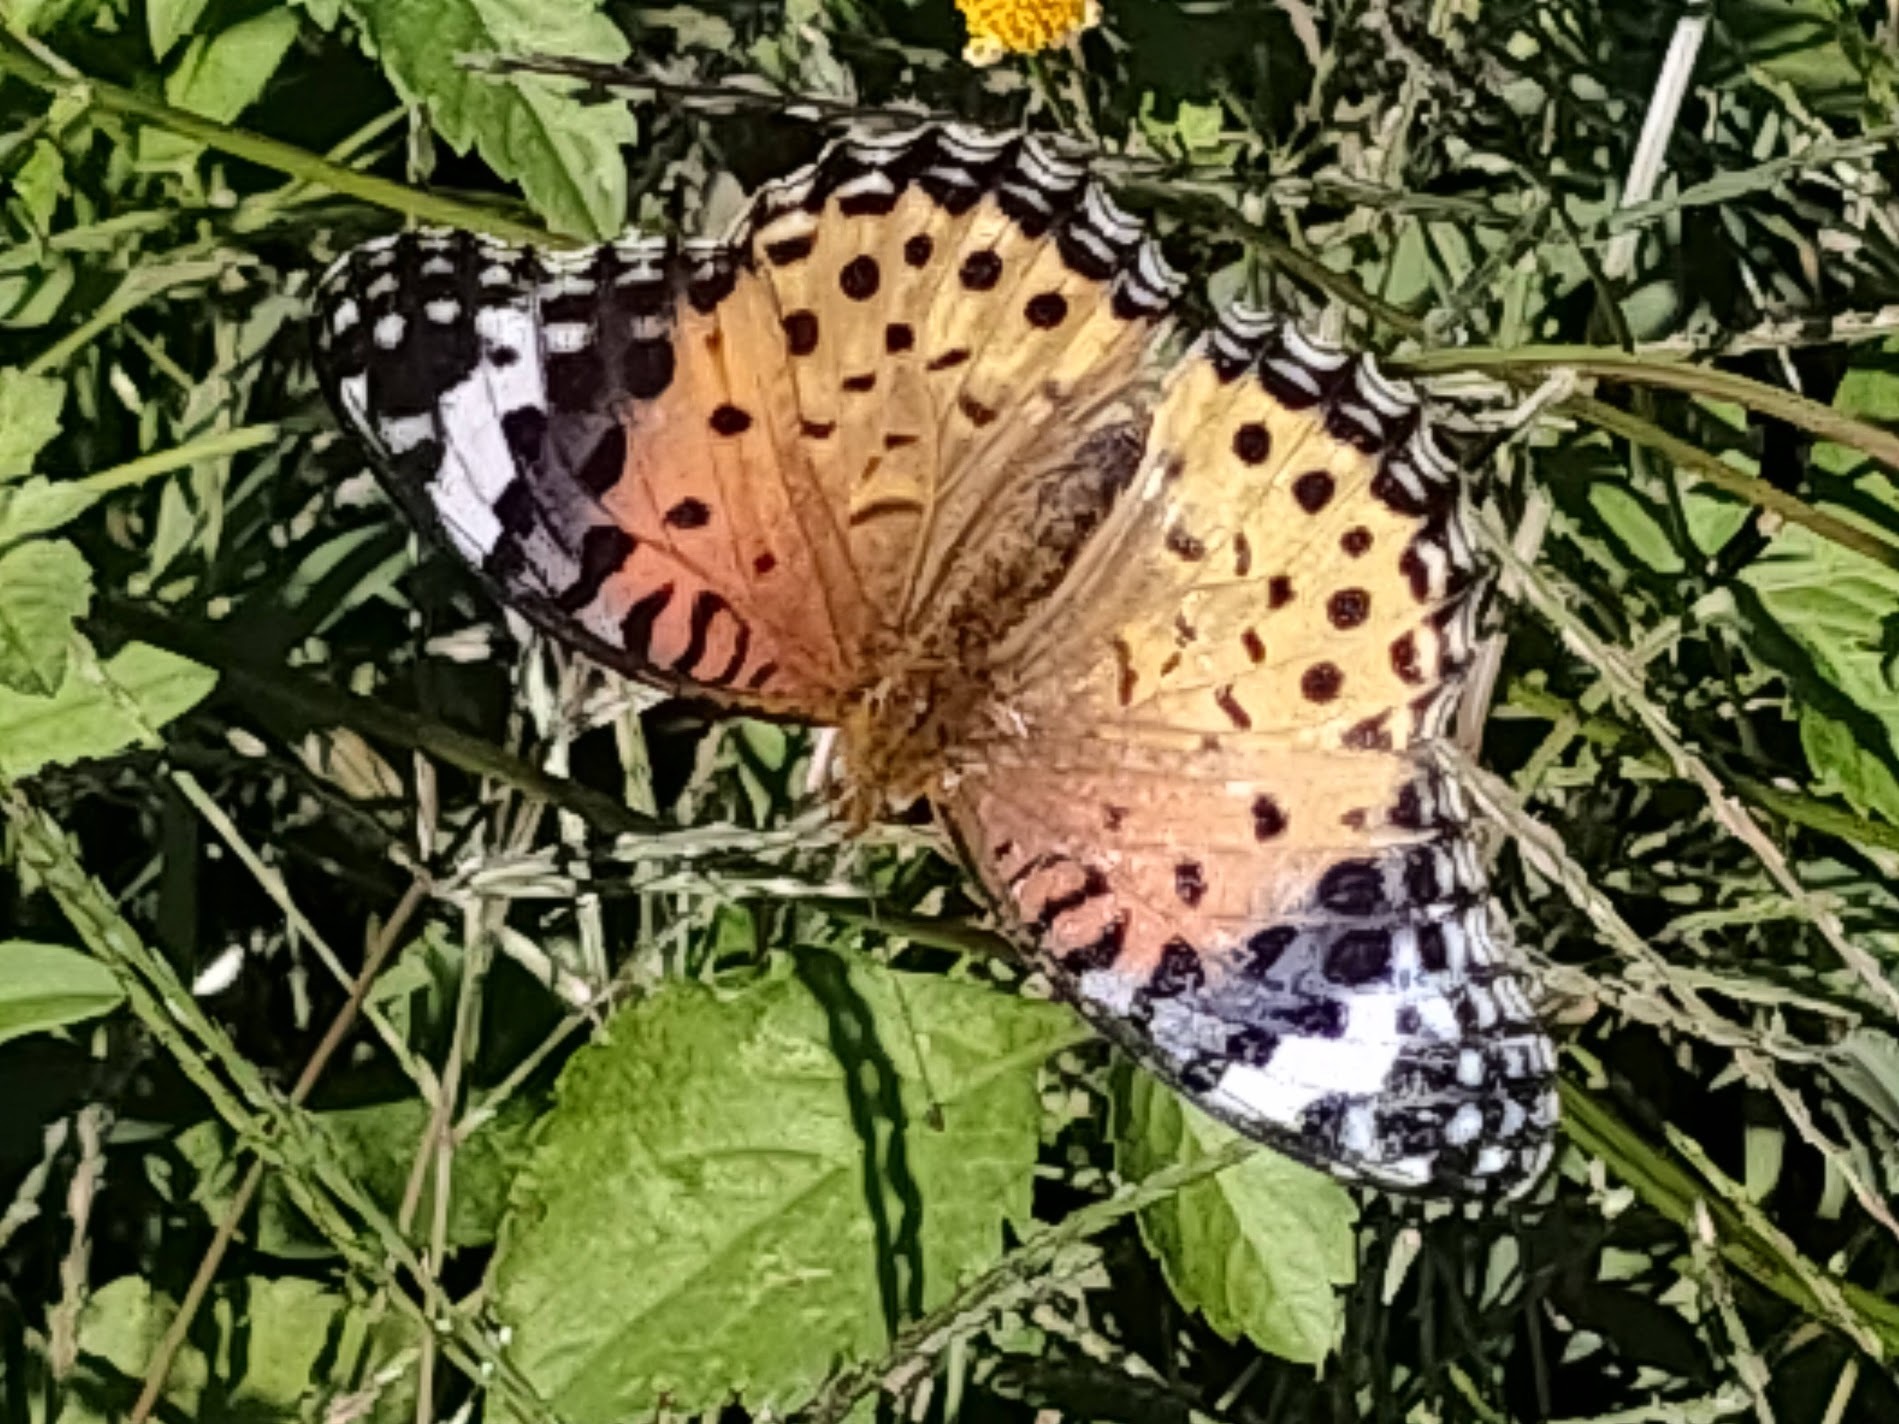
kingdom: Animalia
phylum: Arthropoda
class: Insecta
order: Lepidoptera
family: Nymphalidae
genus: Argynnis
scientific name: Argynnis hyperbius
